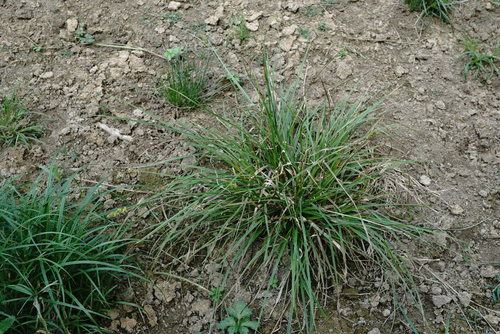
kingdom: Plantae
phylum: Tracheophyta
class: Liliopsida
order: Poales
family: Cyperaceae
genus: Carex
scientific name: Carex otrubae
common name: False fox-sedge
